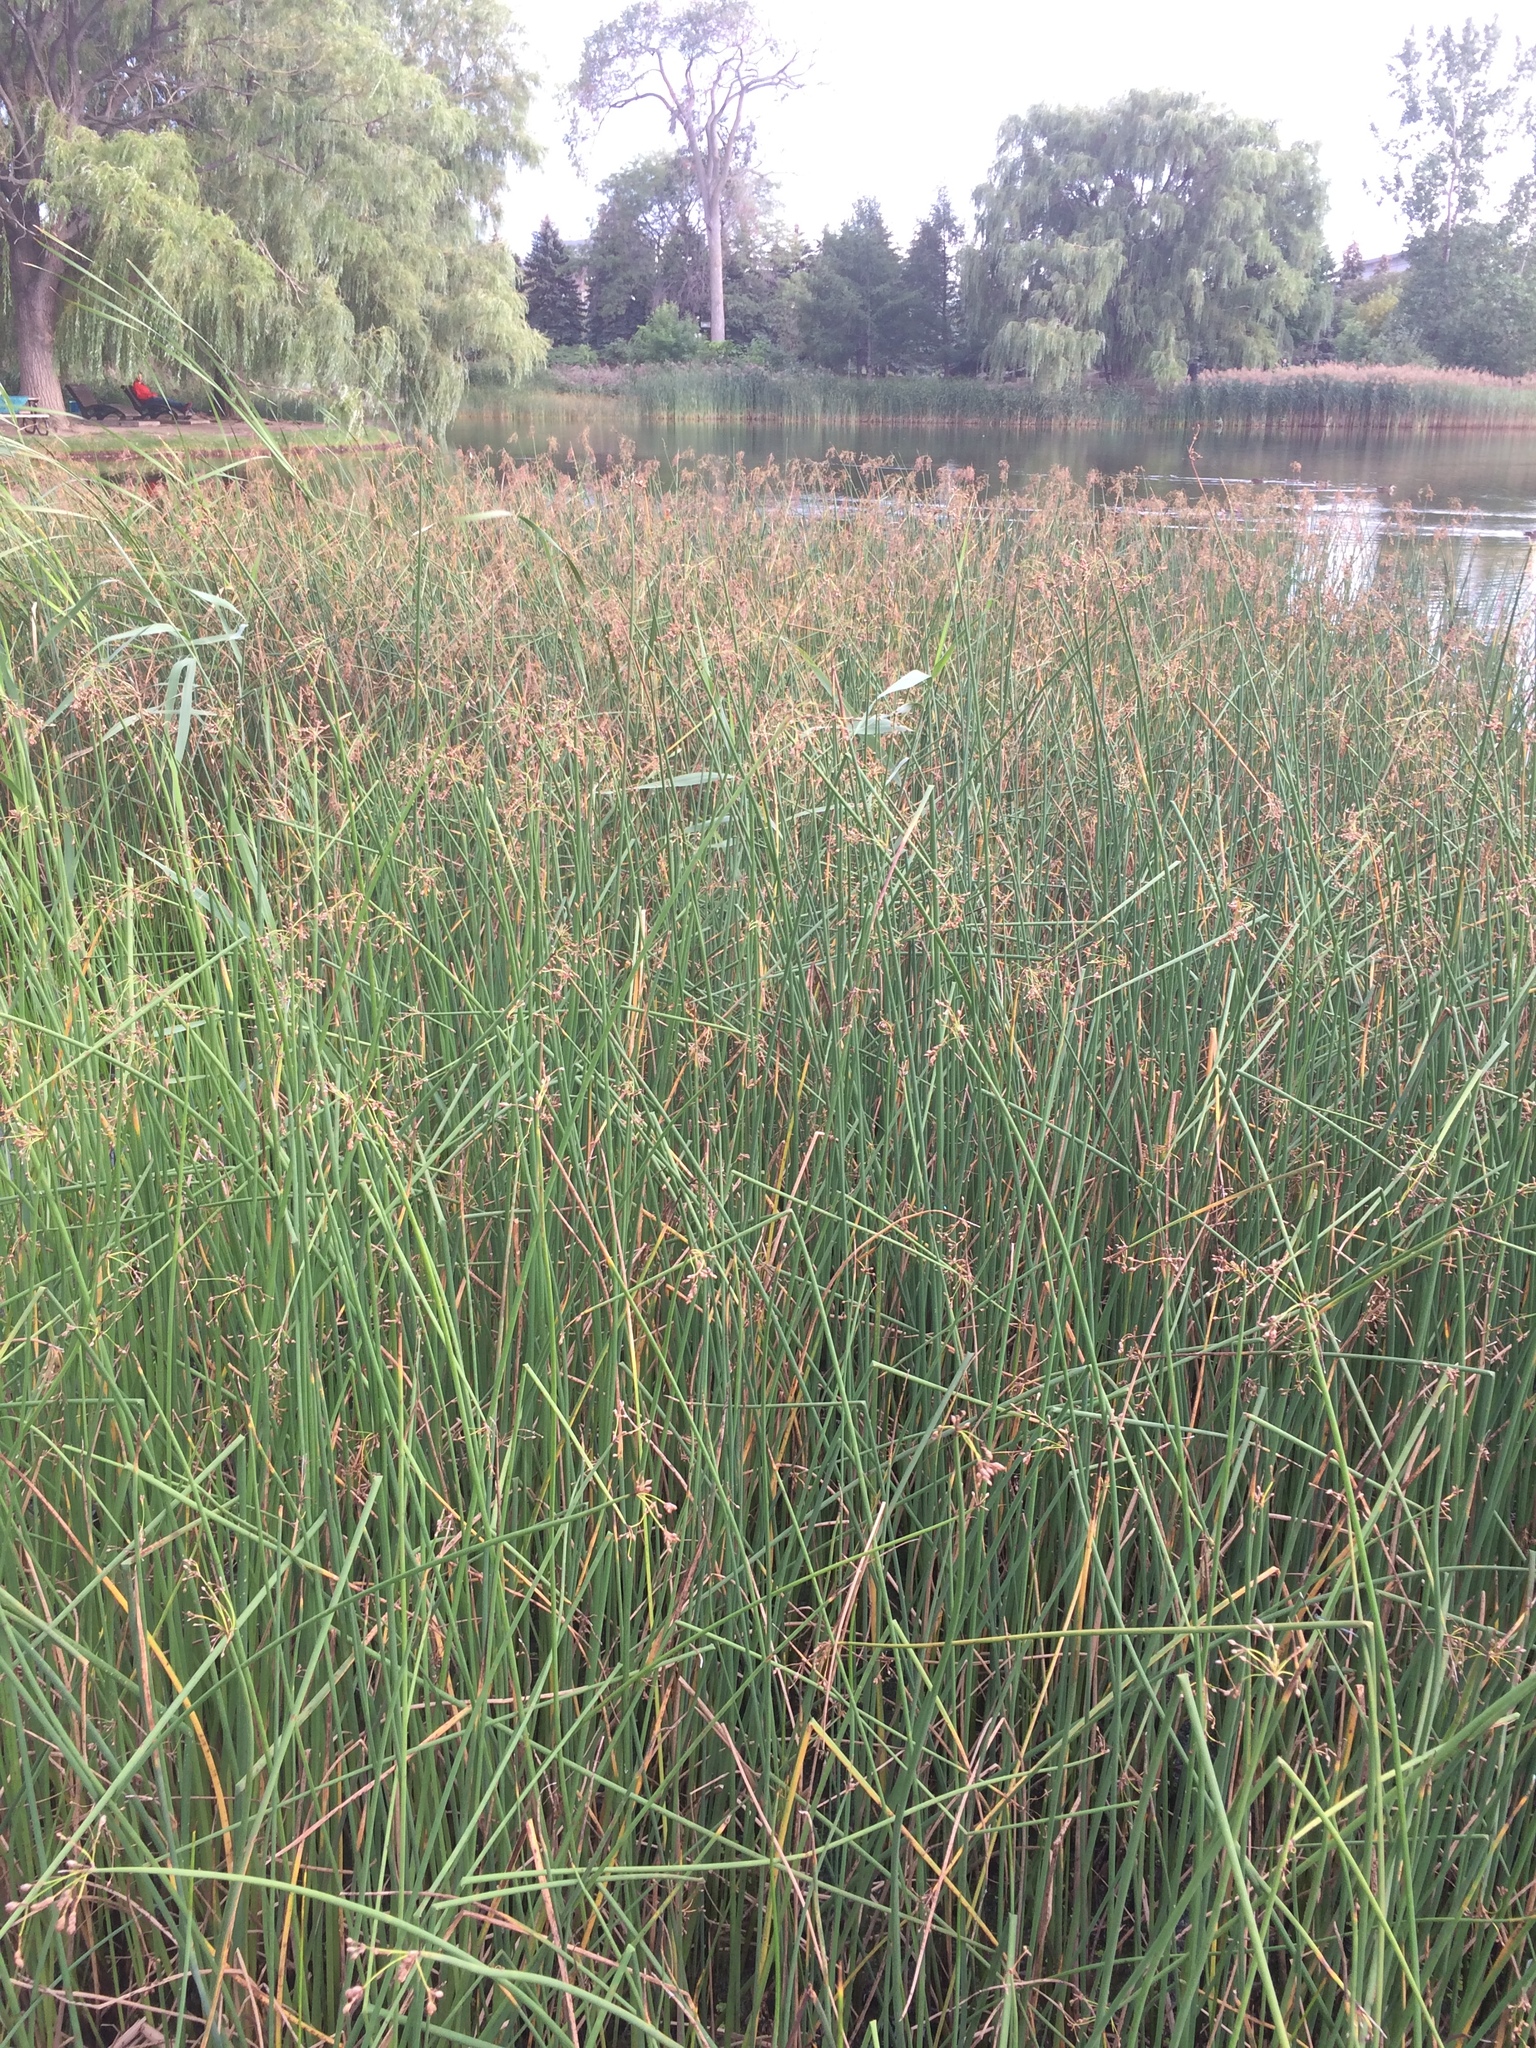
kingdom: Plantae
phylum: Tracheophyta
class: Liliopsida
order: Poales
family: Cyperaceae
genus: Schoenoplectus
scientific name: Schoenoplectus tabernaemontani
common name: Grey club-rush
